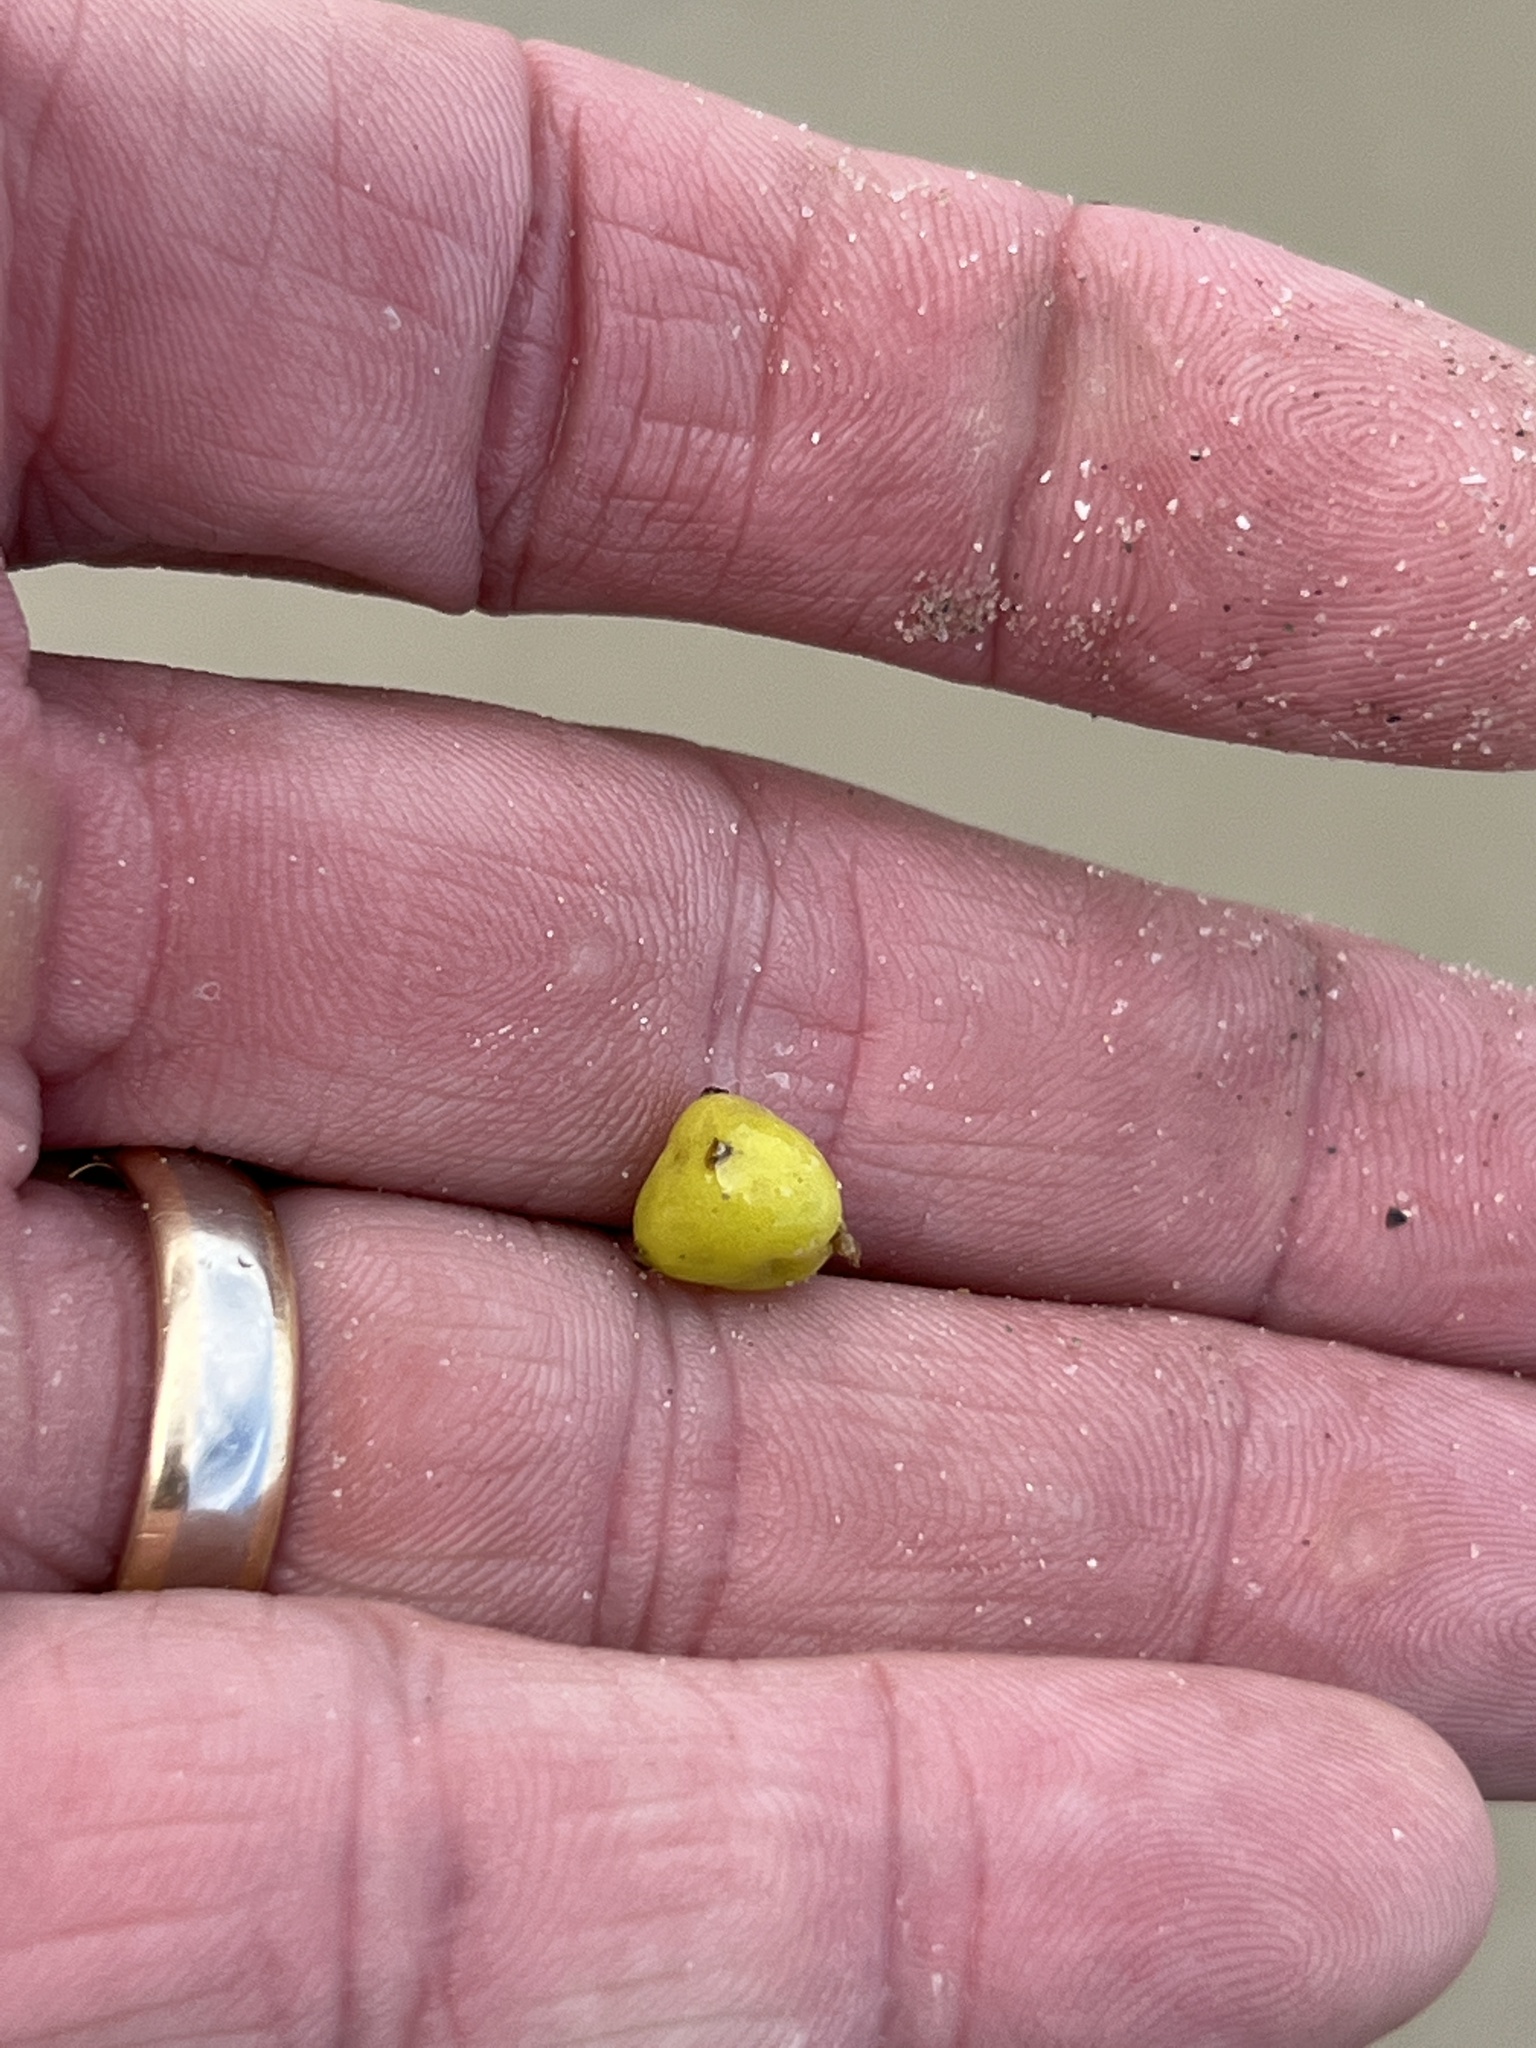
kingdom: Plantae
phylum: Tracheophyta
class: Magnoliopsida
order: Brassicales
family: Bataceae
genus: Batis
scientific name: Batis maritima
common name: Turtleweed
